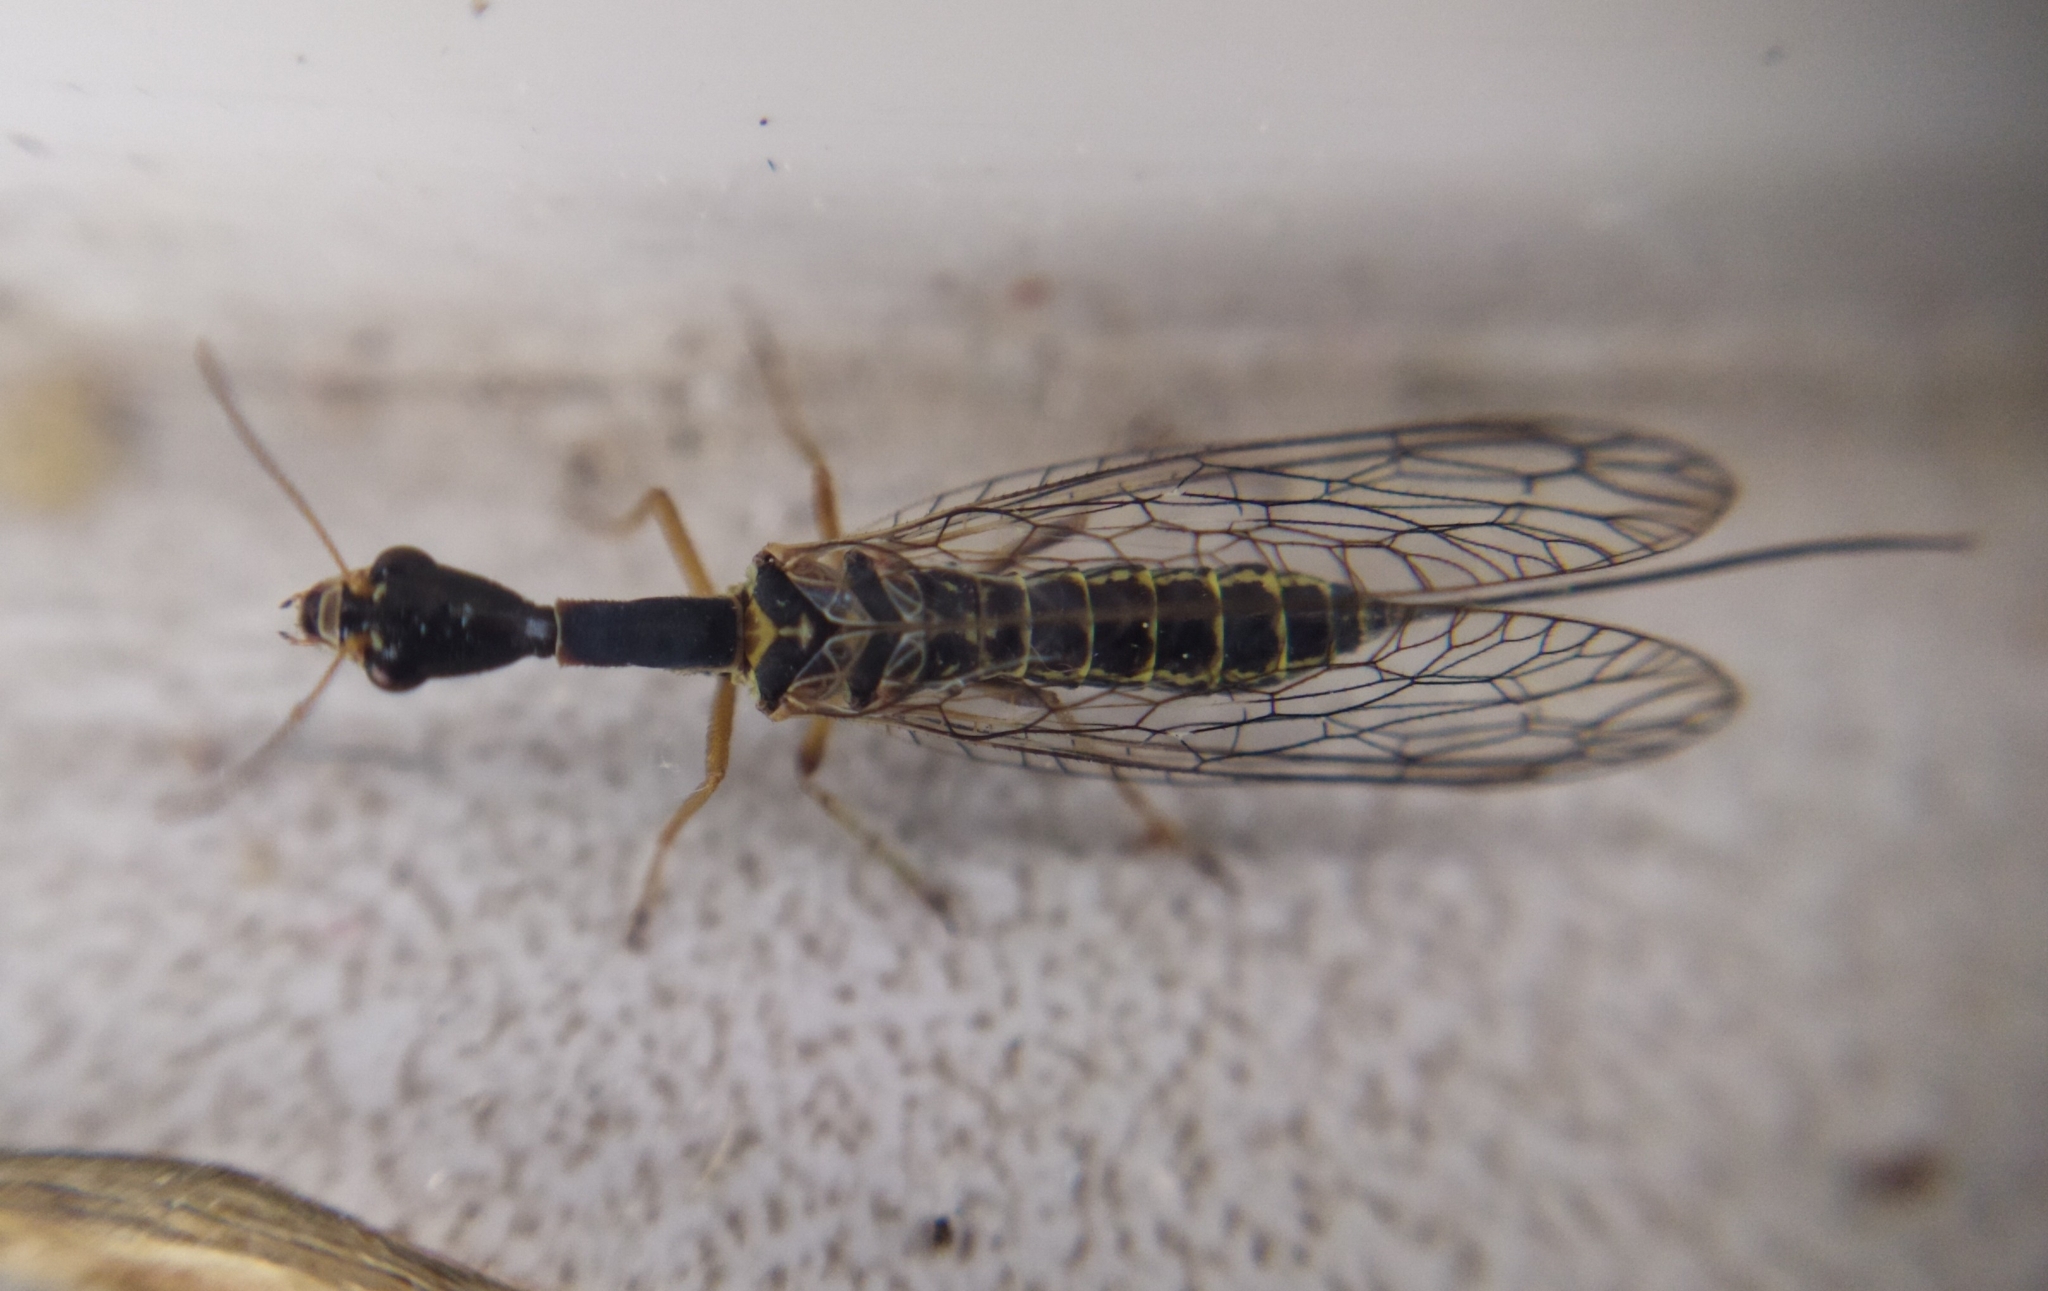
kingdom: Animalia
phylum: Arthropoda
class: Insecta
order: Raphidioptera
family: Raphidiidae
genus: Xanthostigma
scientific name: Xanthostigma xanthostigma
